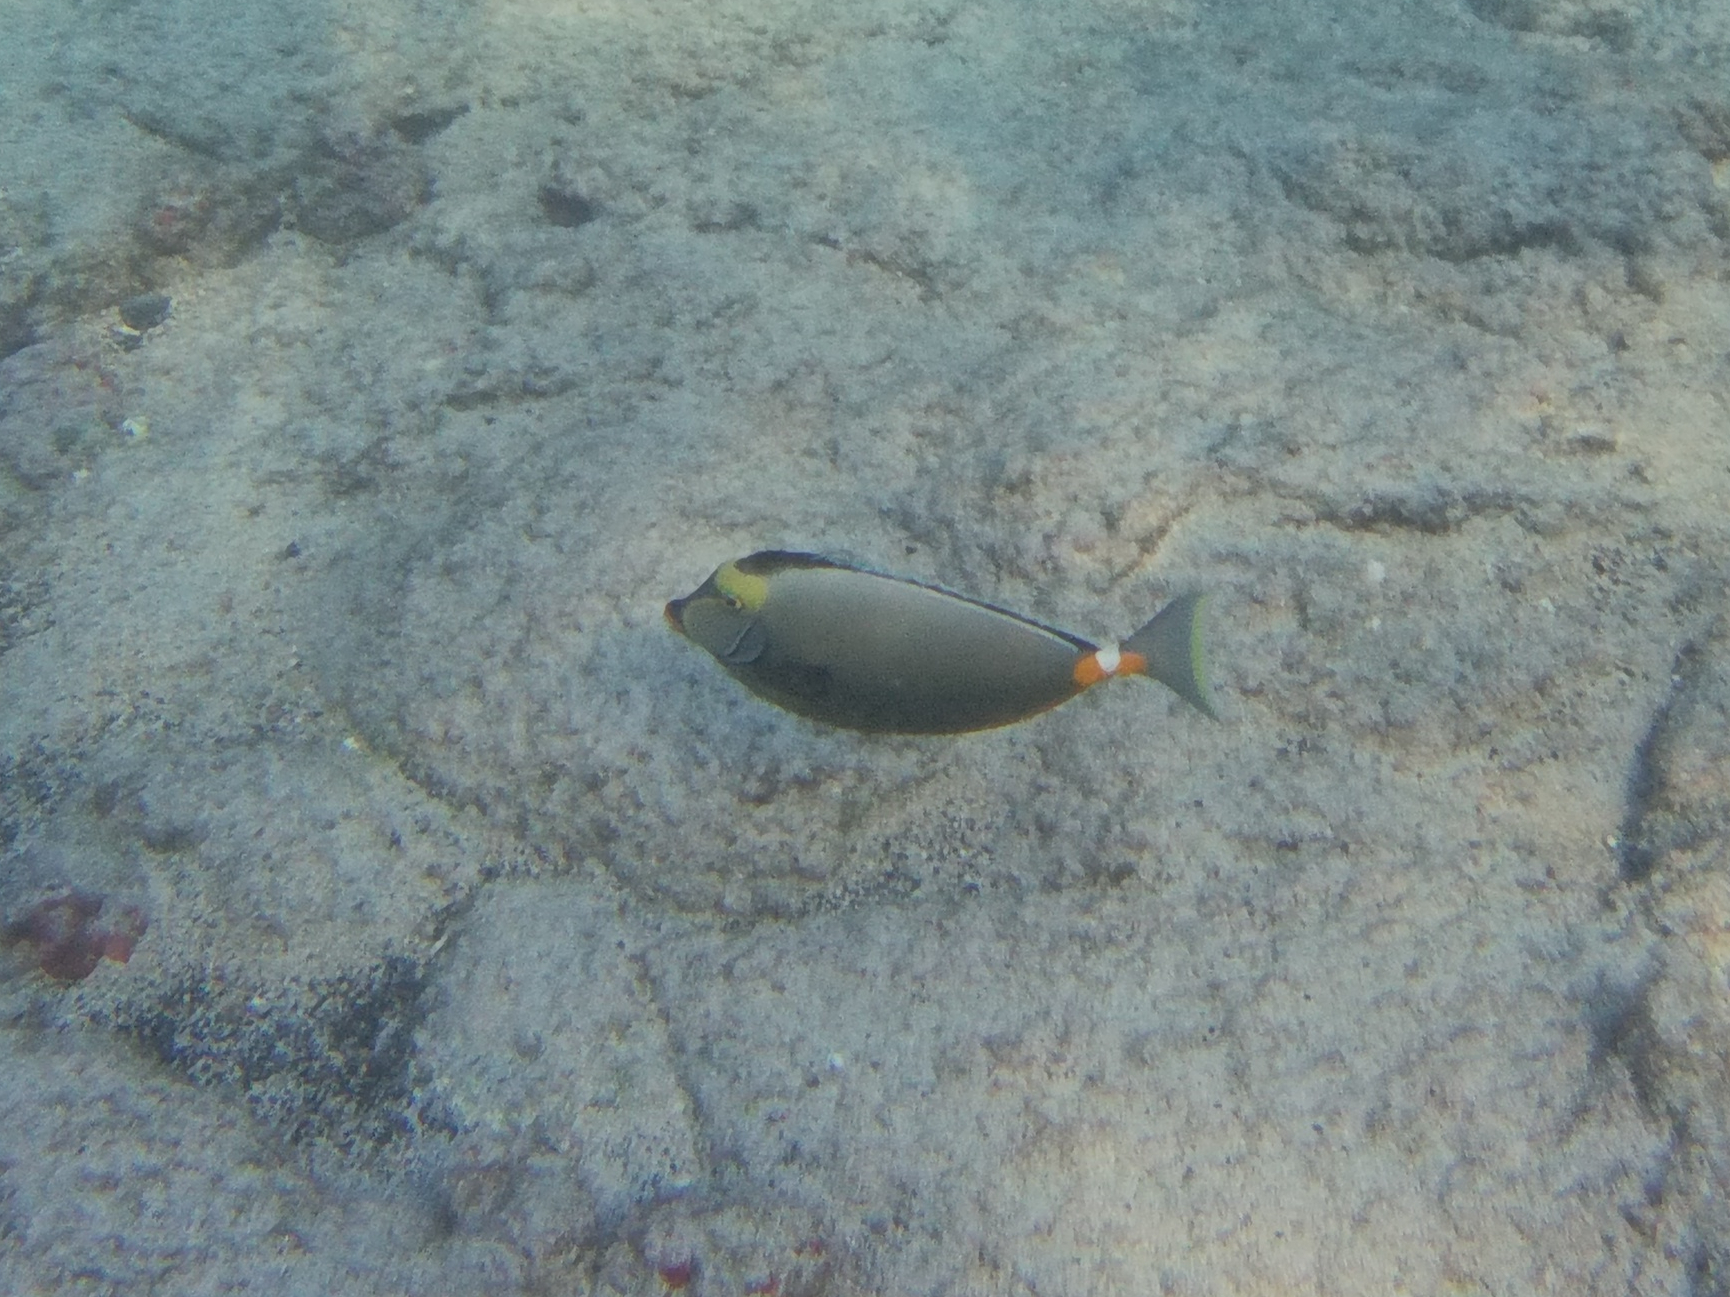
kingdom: Animalia
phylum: Chordata
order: Perciformes
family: Acanthuridae
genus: Naso
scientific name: Naso lituratus
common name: Orangespine unicornfish
